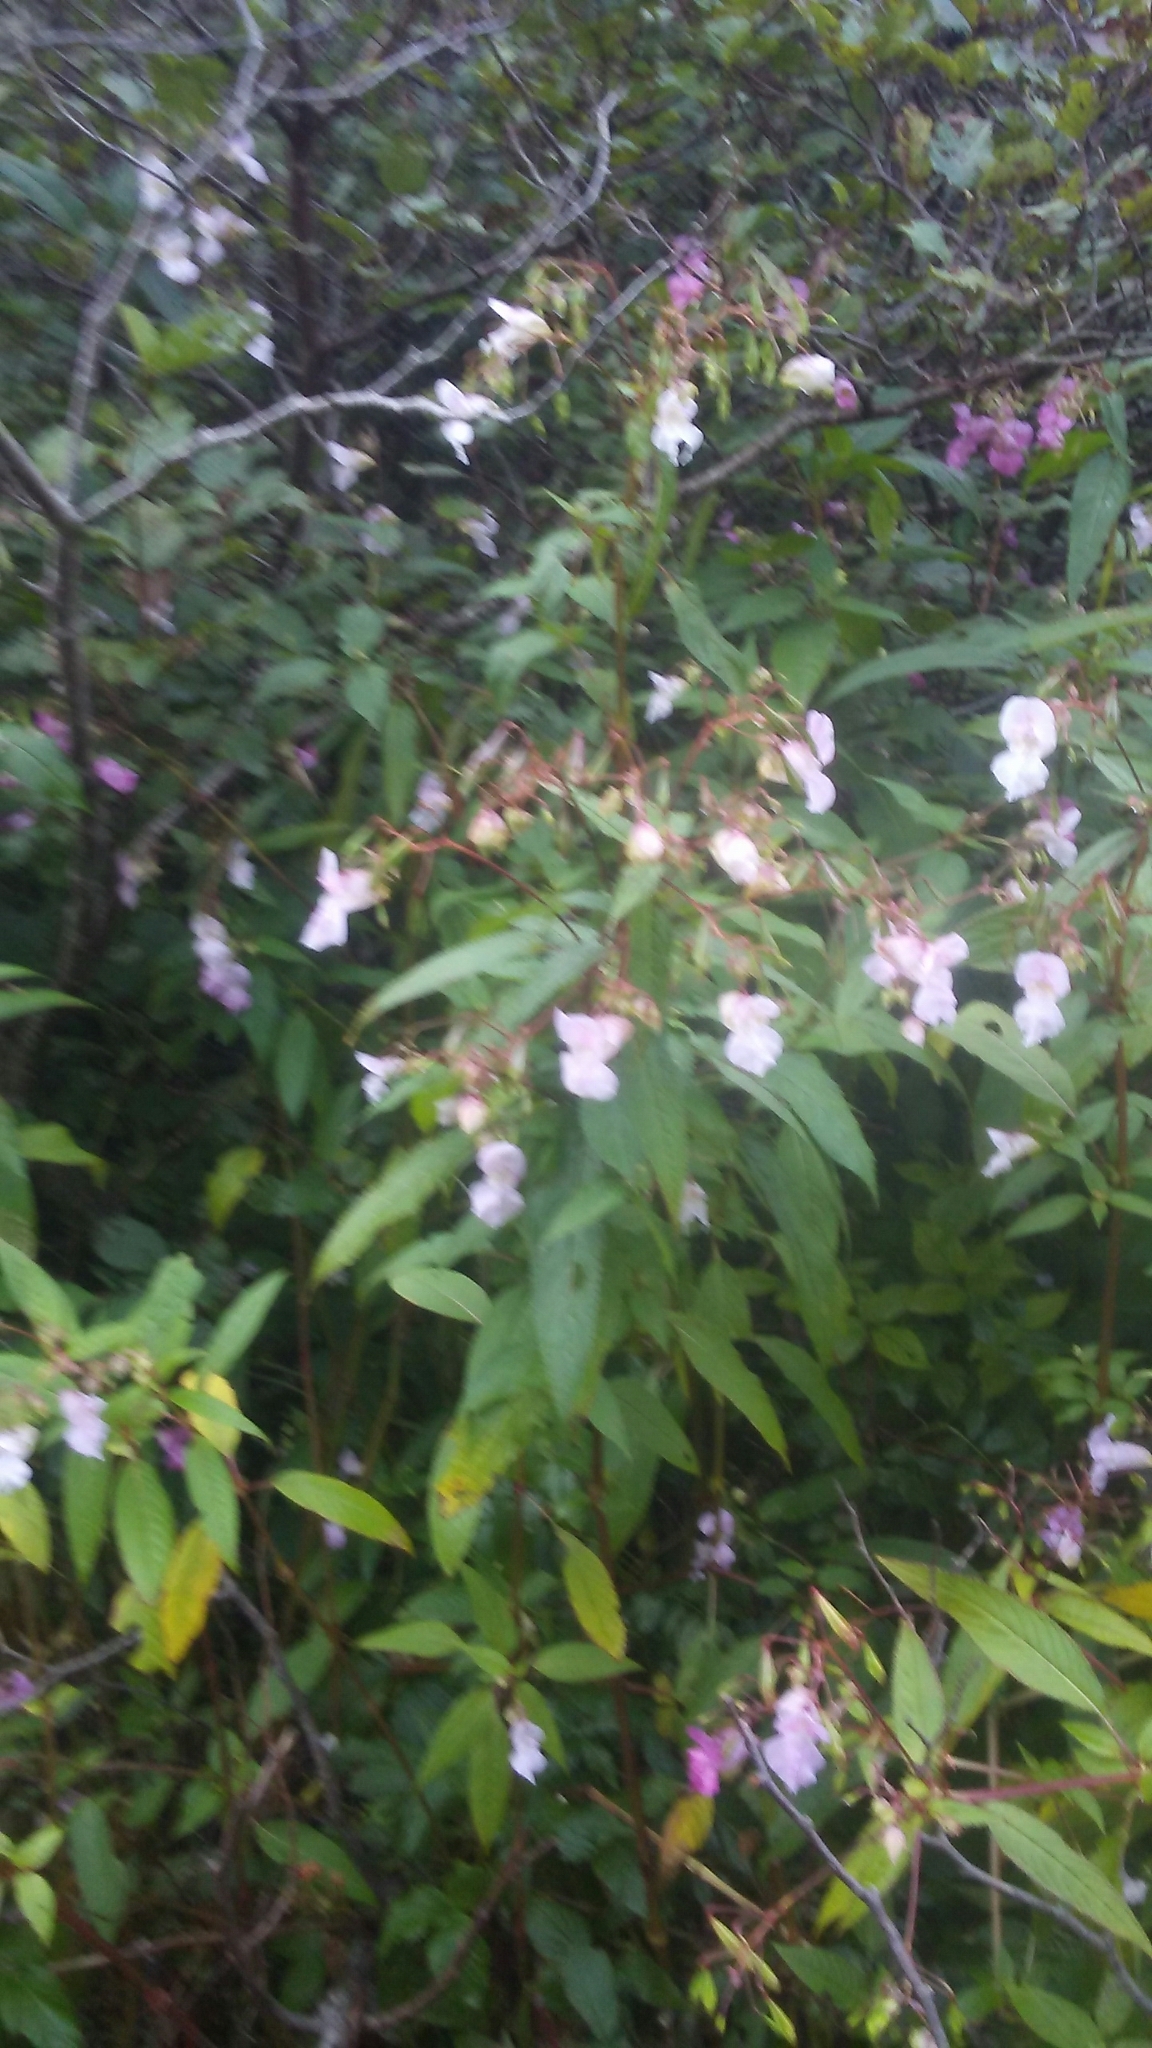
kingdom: Plantae
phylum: Tracheophyta
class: Magnoliopsida
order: Ericales
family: Balsaminaceae
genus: Impatiens
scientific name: Impatiens glandulifera
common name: Himalayan balsam
